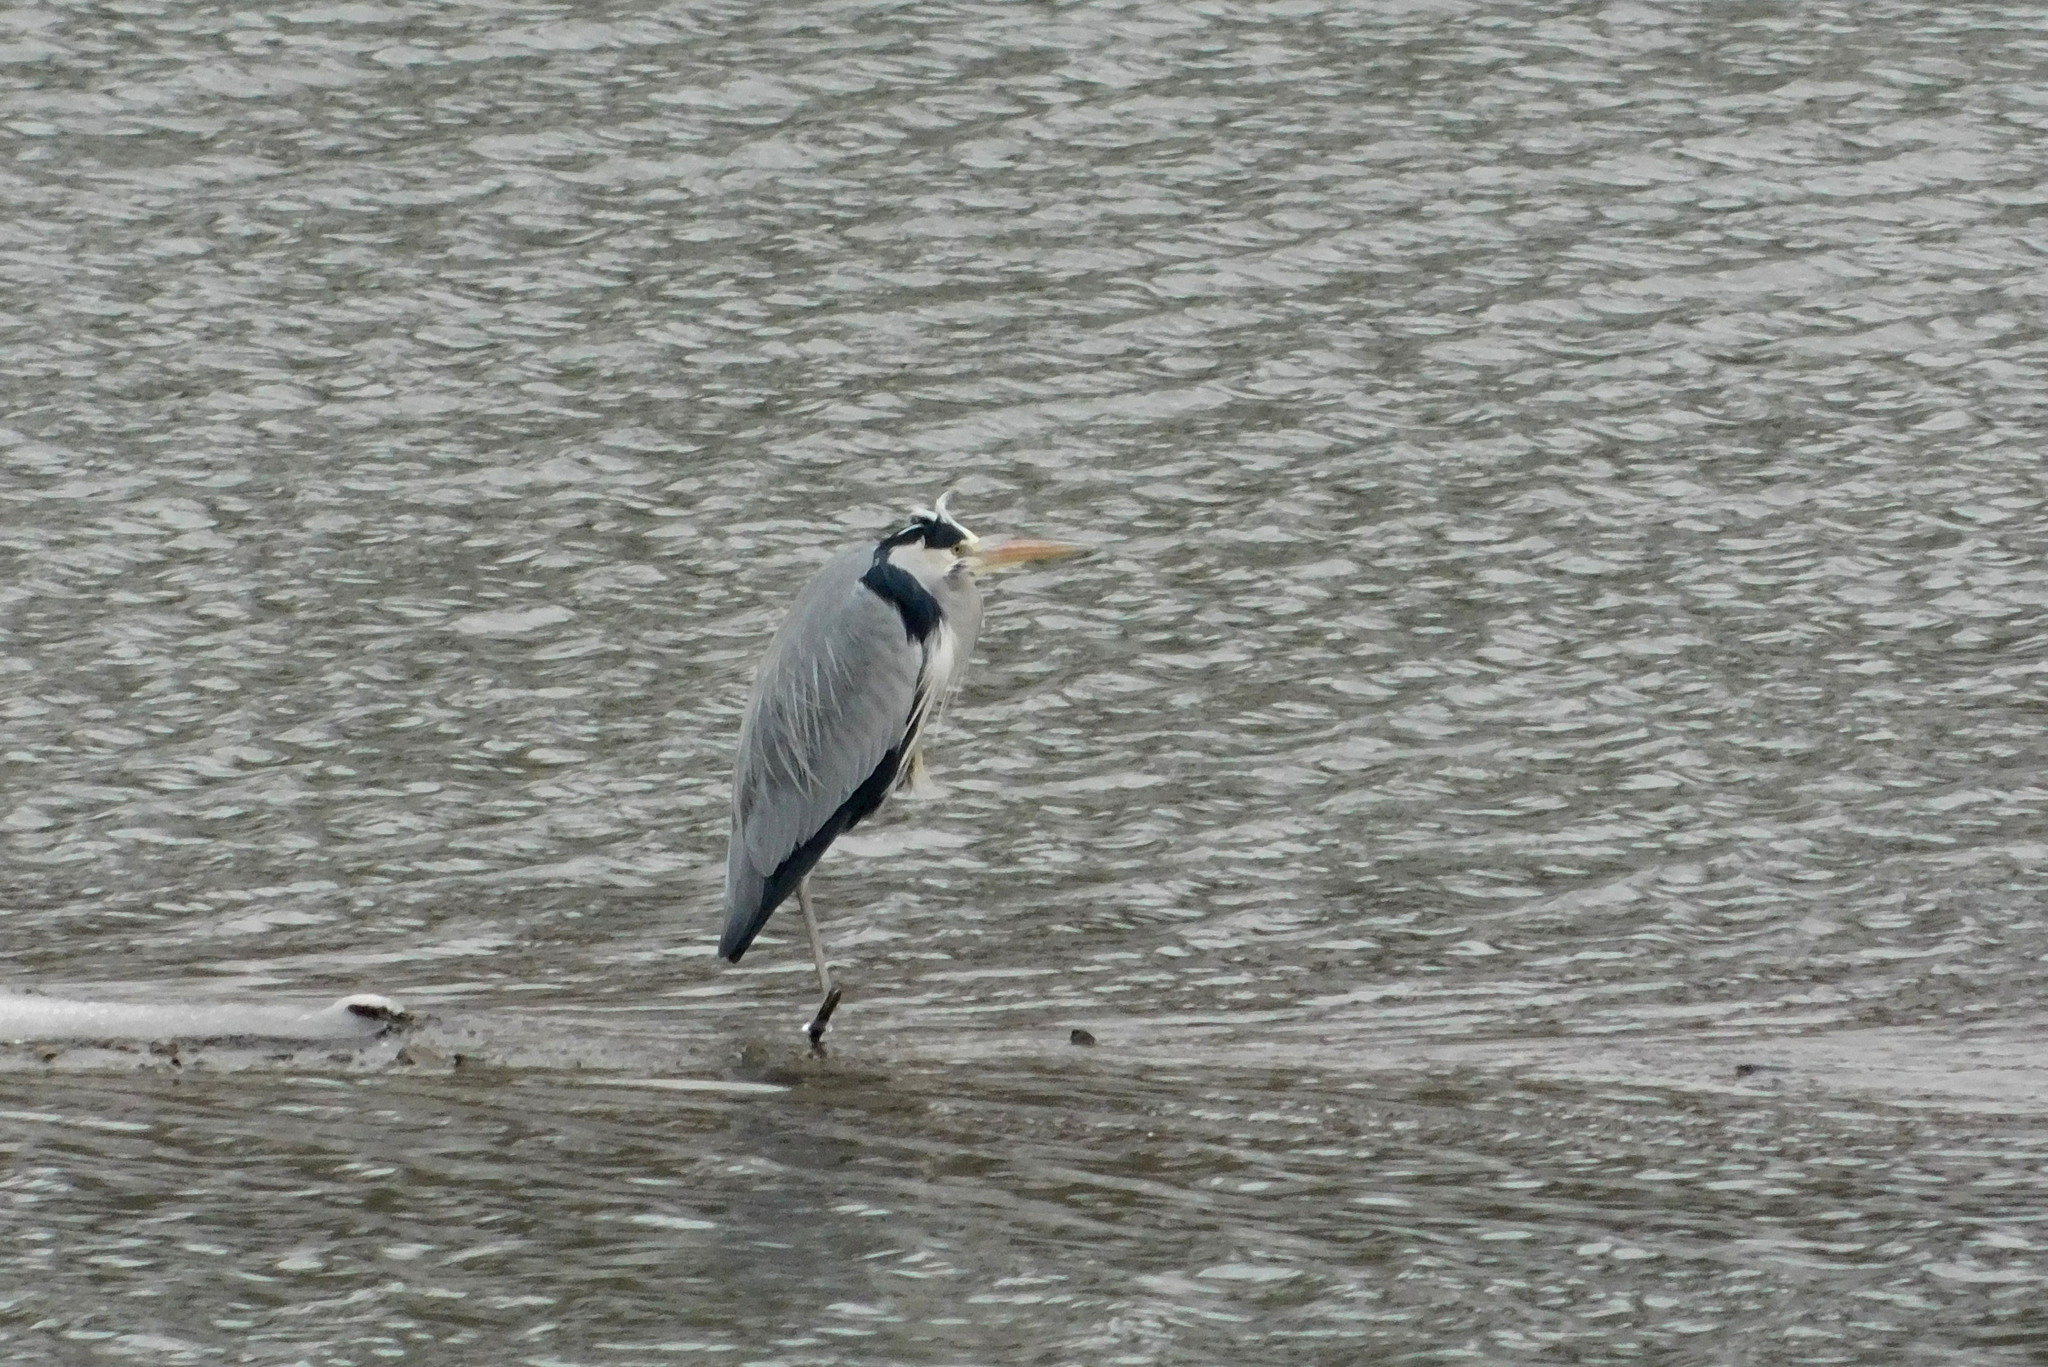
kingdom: Animalia
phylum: Chordata
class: Aves
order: Pelecaniformes
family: Ardeidae
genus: Ardea
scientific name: Ardea cinerea
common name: Grey heron
